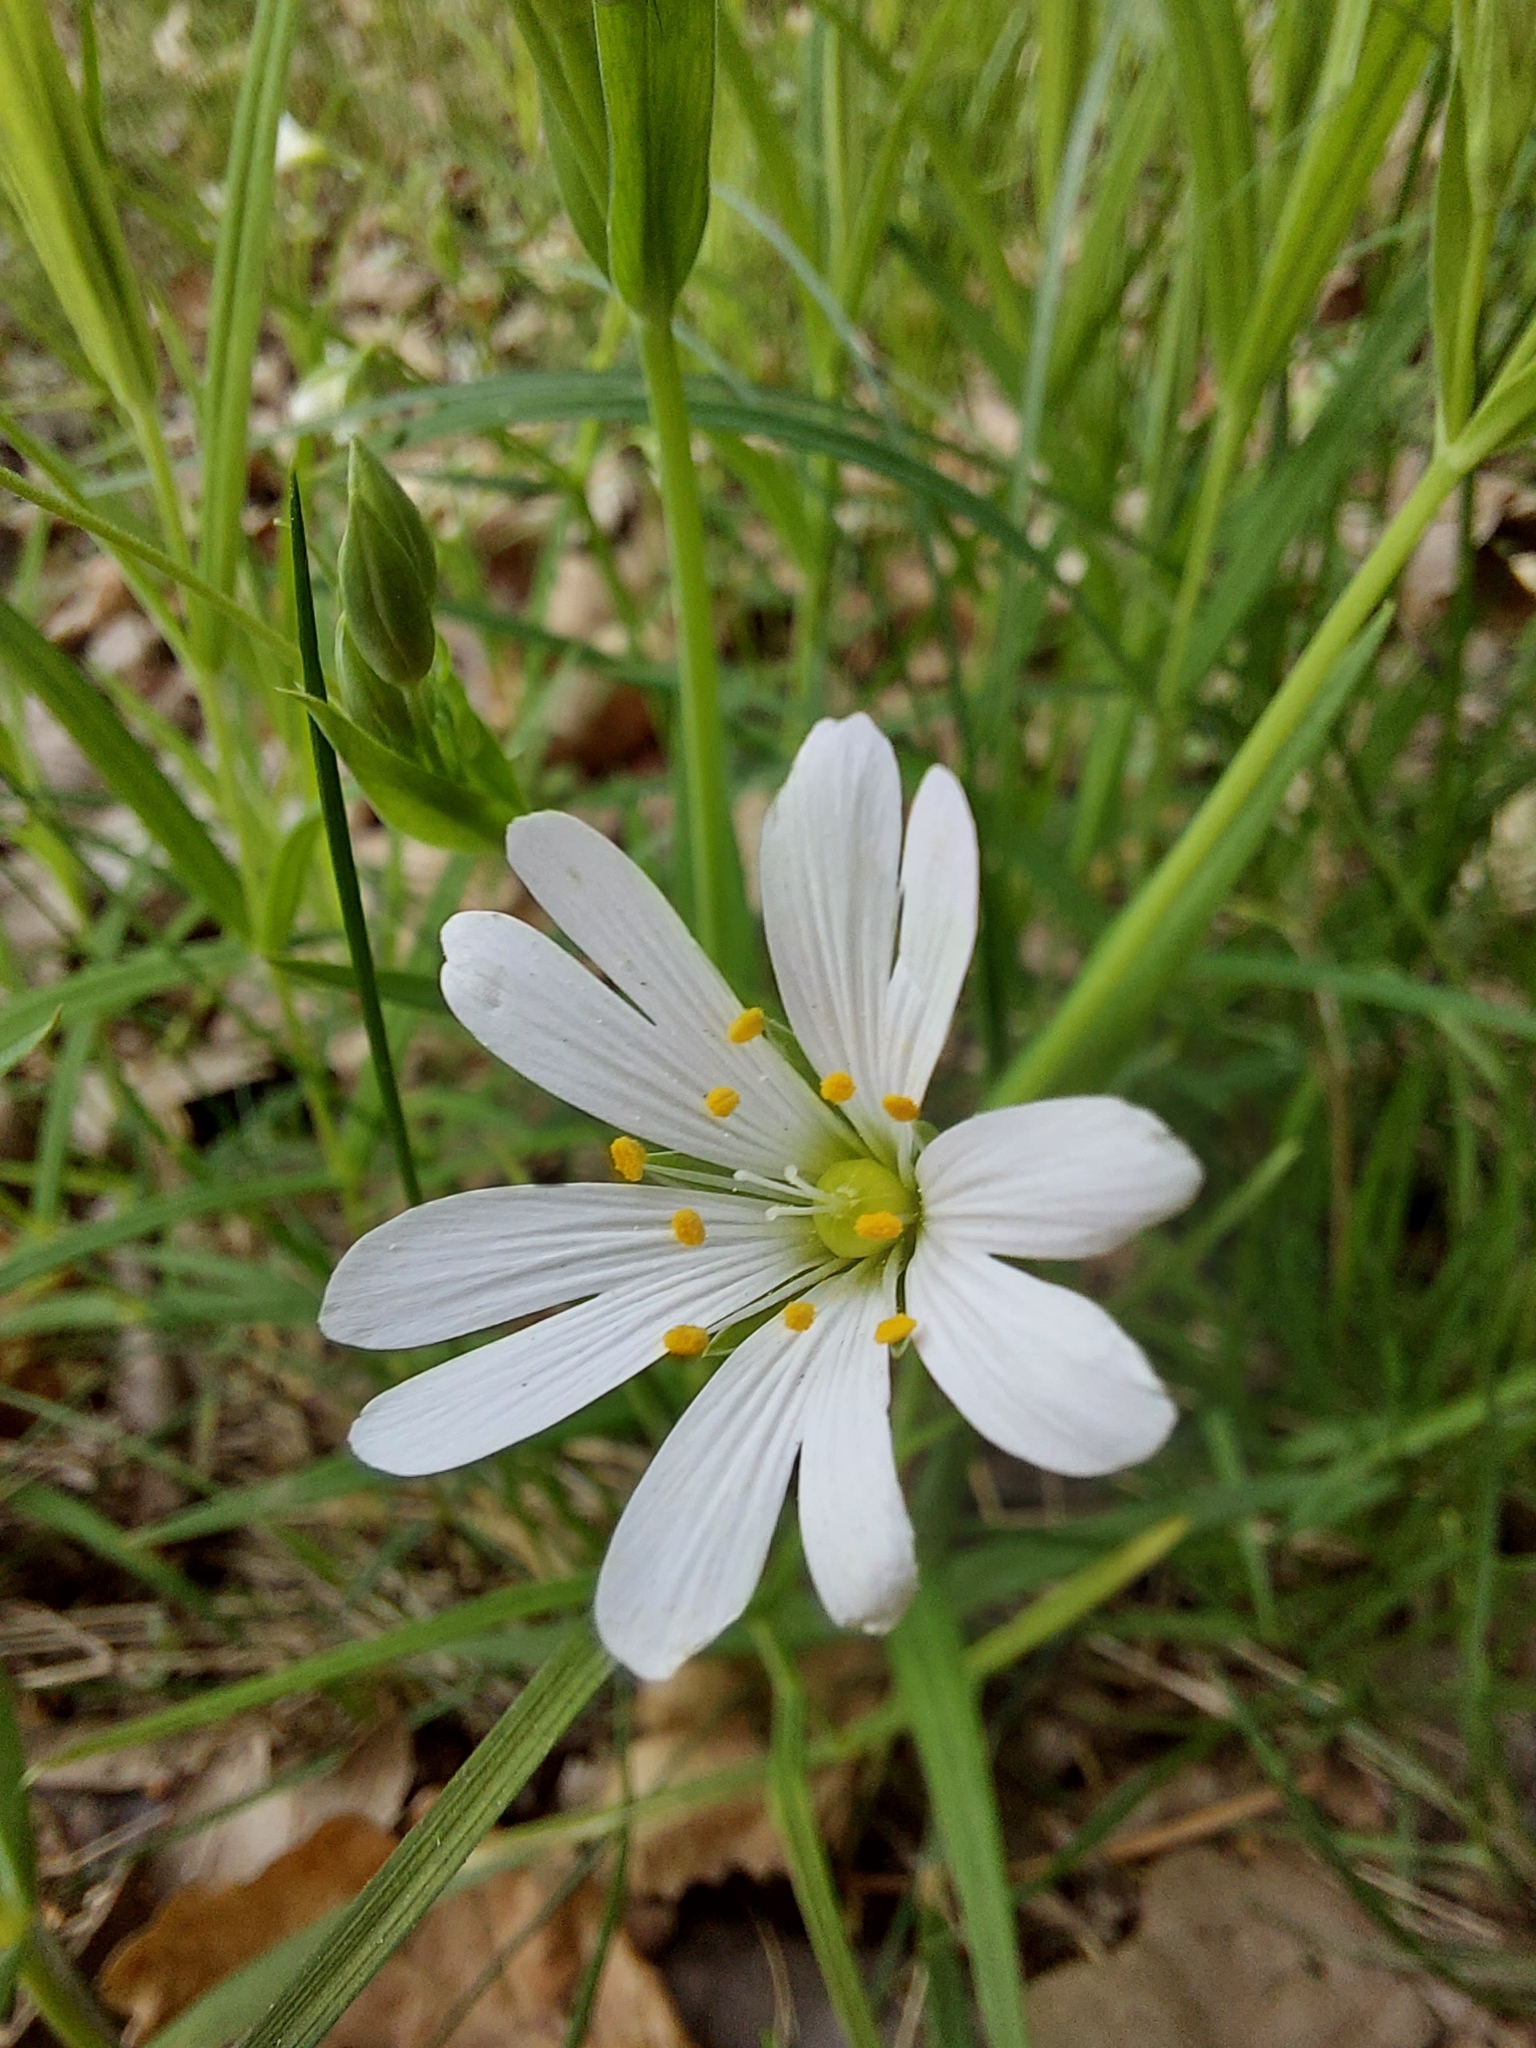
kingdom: Plantae
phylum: Tracheophyta
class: Magnoliopsida
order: Caryophyllales
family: Caryophyllaceae
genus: Rabelera
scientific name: Rabelera holostea
